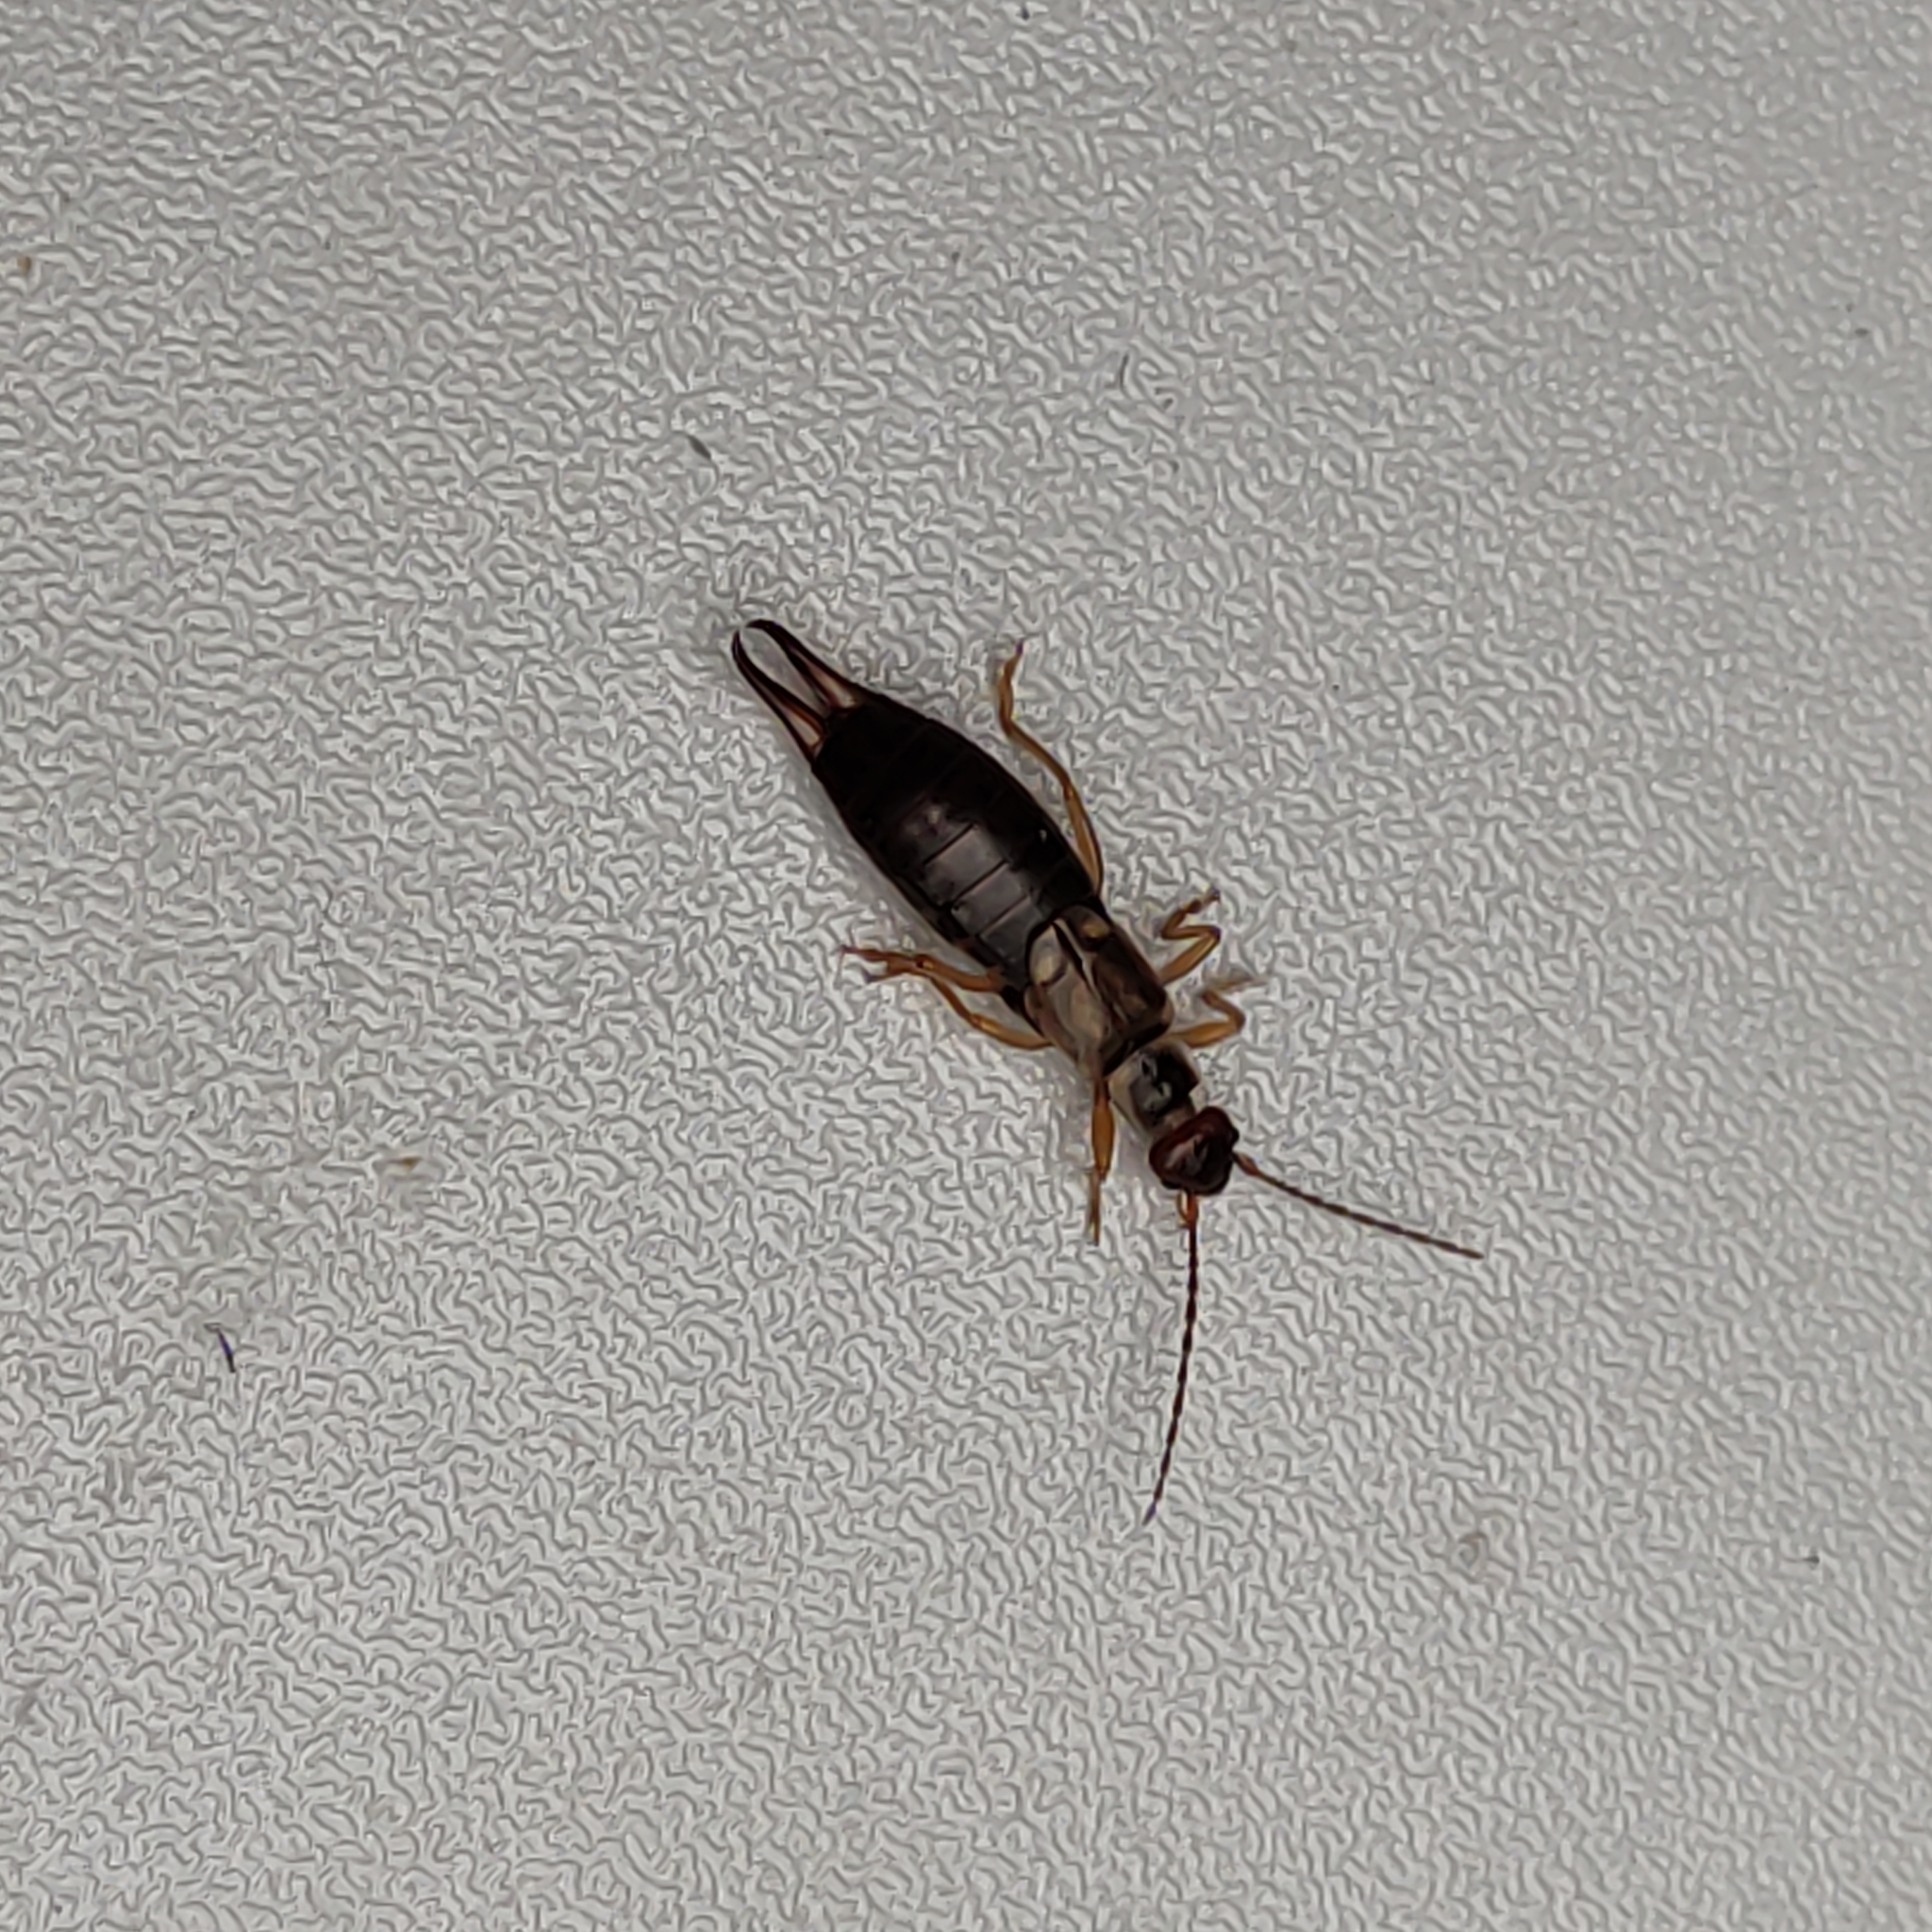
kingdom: Animalia
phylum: Arthropoda
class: Insecta
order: Dermaptera
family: Forficulidae
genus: Forficula
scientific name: Forficula
